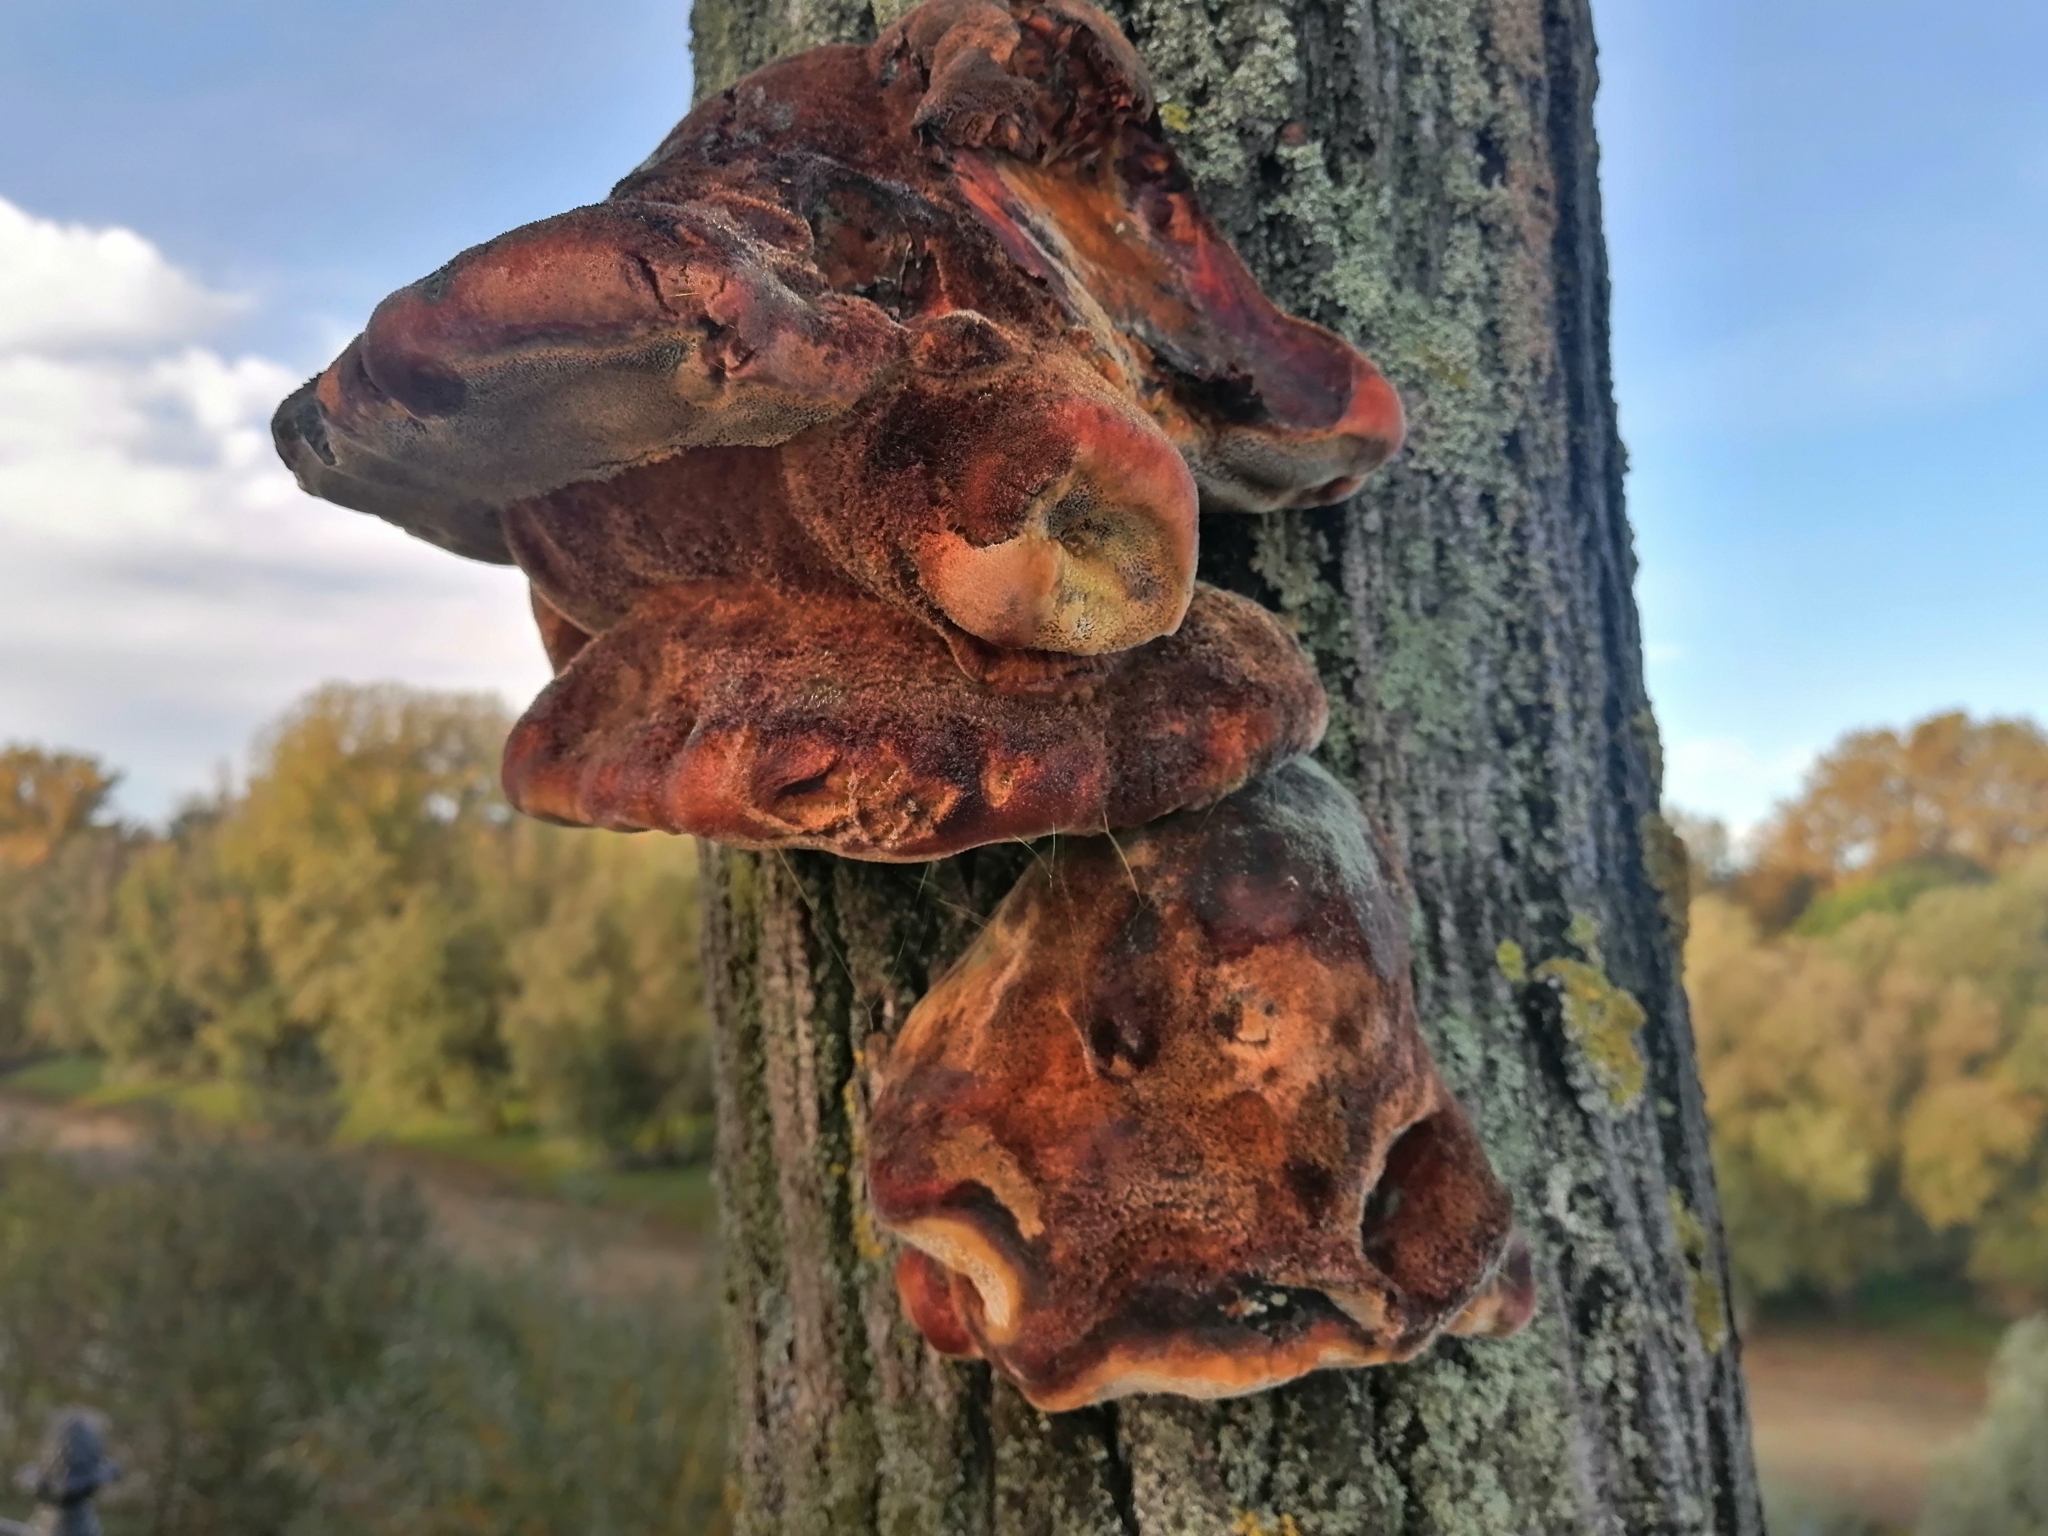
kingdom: Fungi
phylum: Basidiomycota
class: Agaricomycetes
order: Hymenochaetales
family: Hymenochaetaceae
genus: Inonotus
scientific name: Inonotus hispidus
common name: Shaggy bracket
